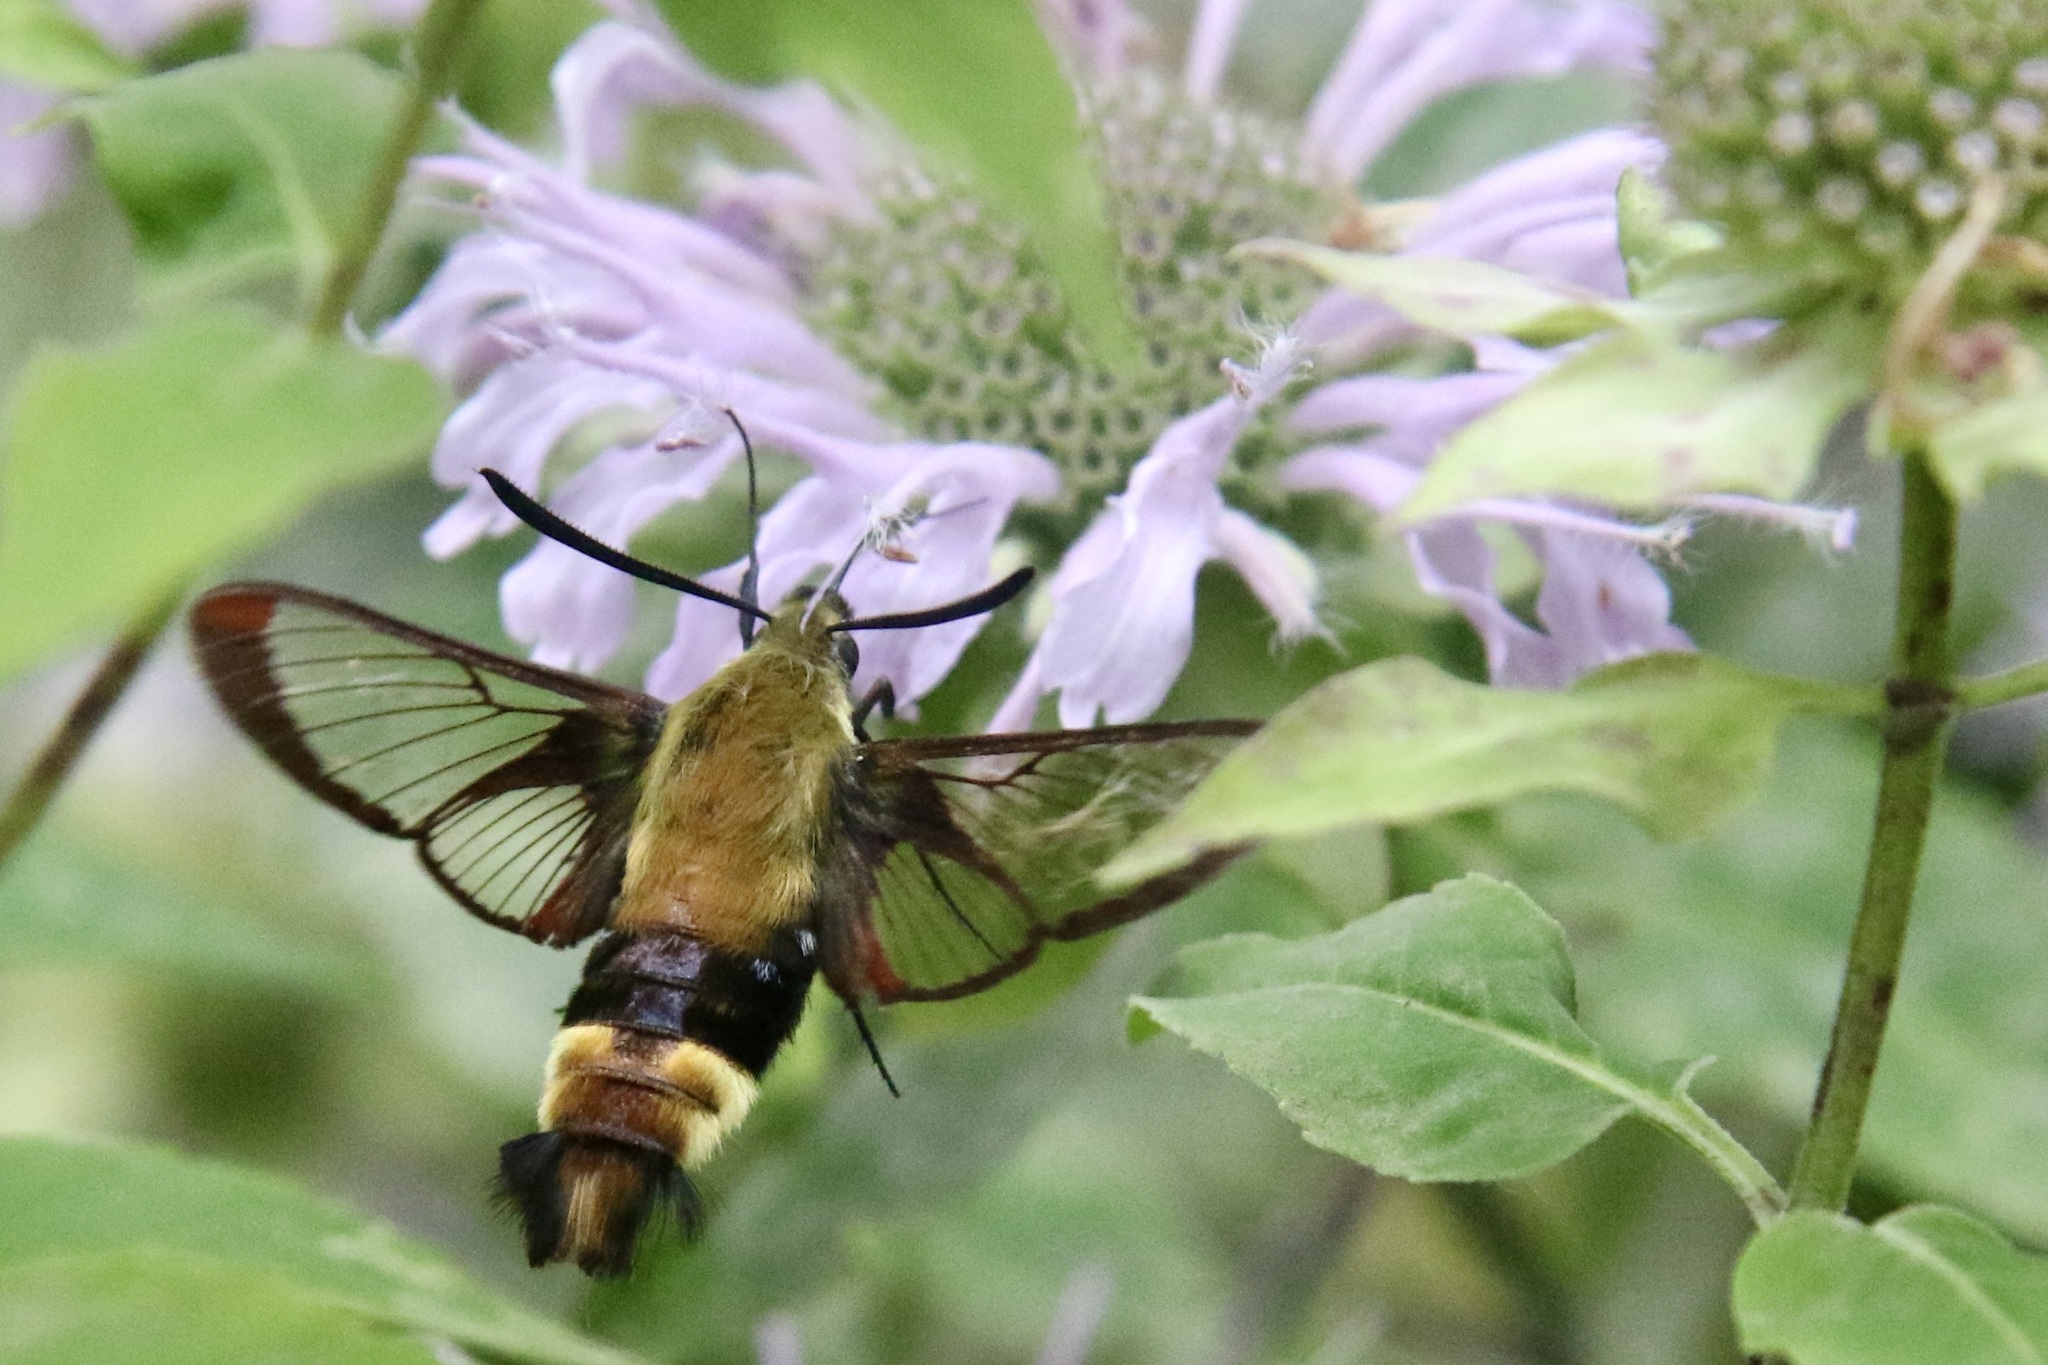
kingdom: Animalia
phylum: Arthropoda
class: Insecta
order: Lepidoptera
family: Sphingidae
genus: Hemaris
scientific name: Hemaris diffinis
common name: Bumblebee moth
